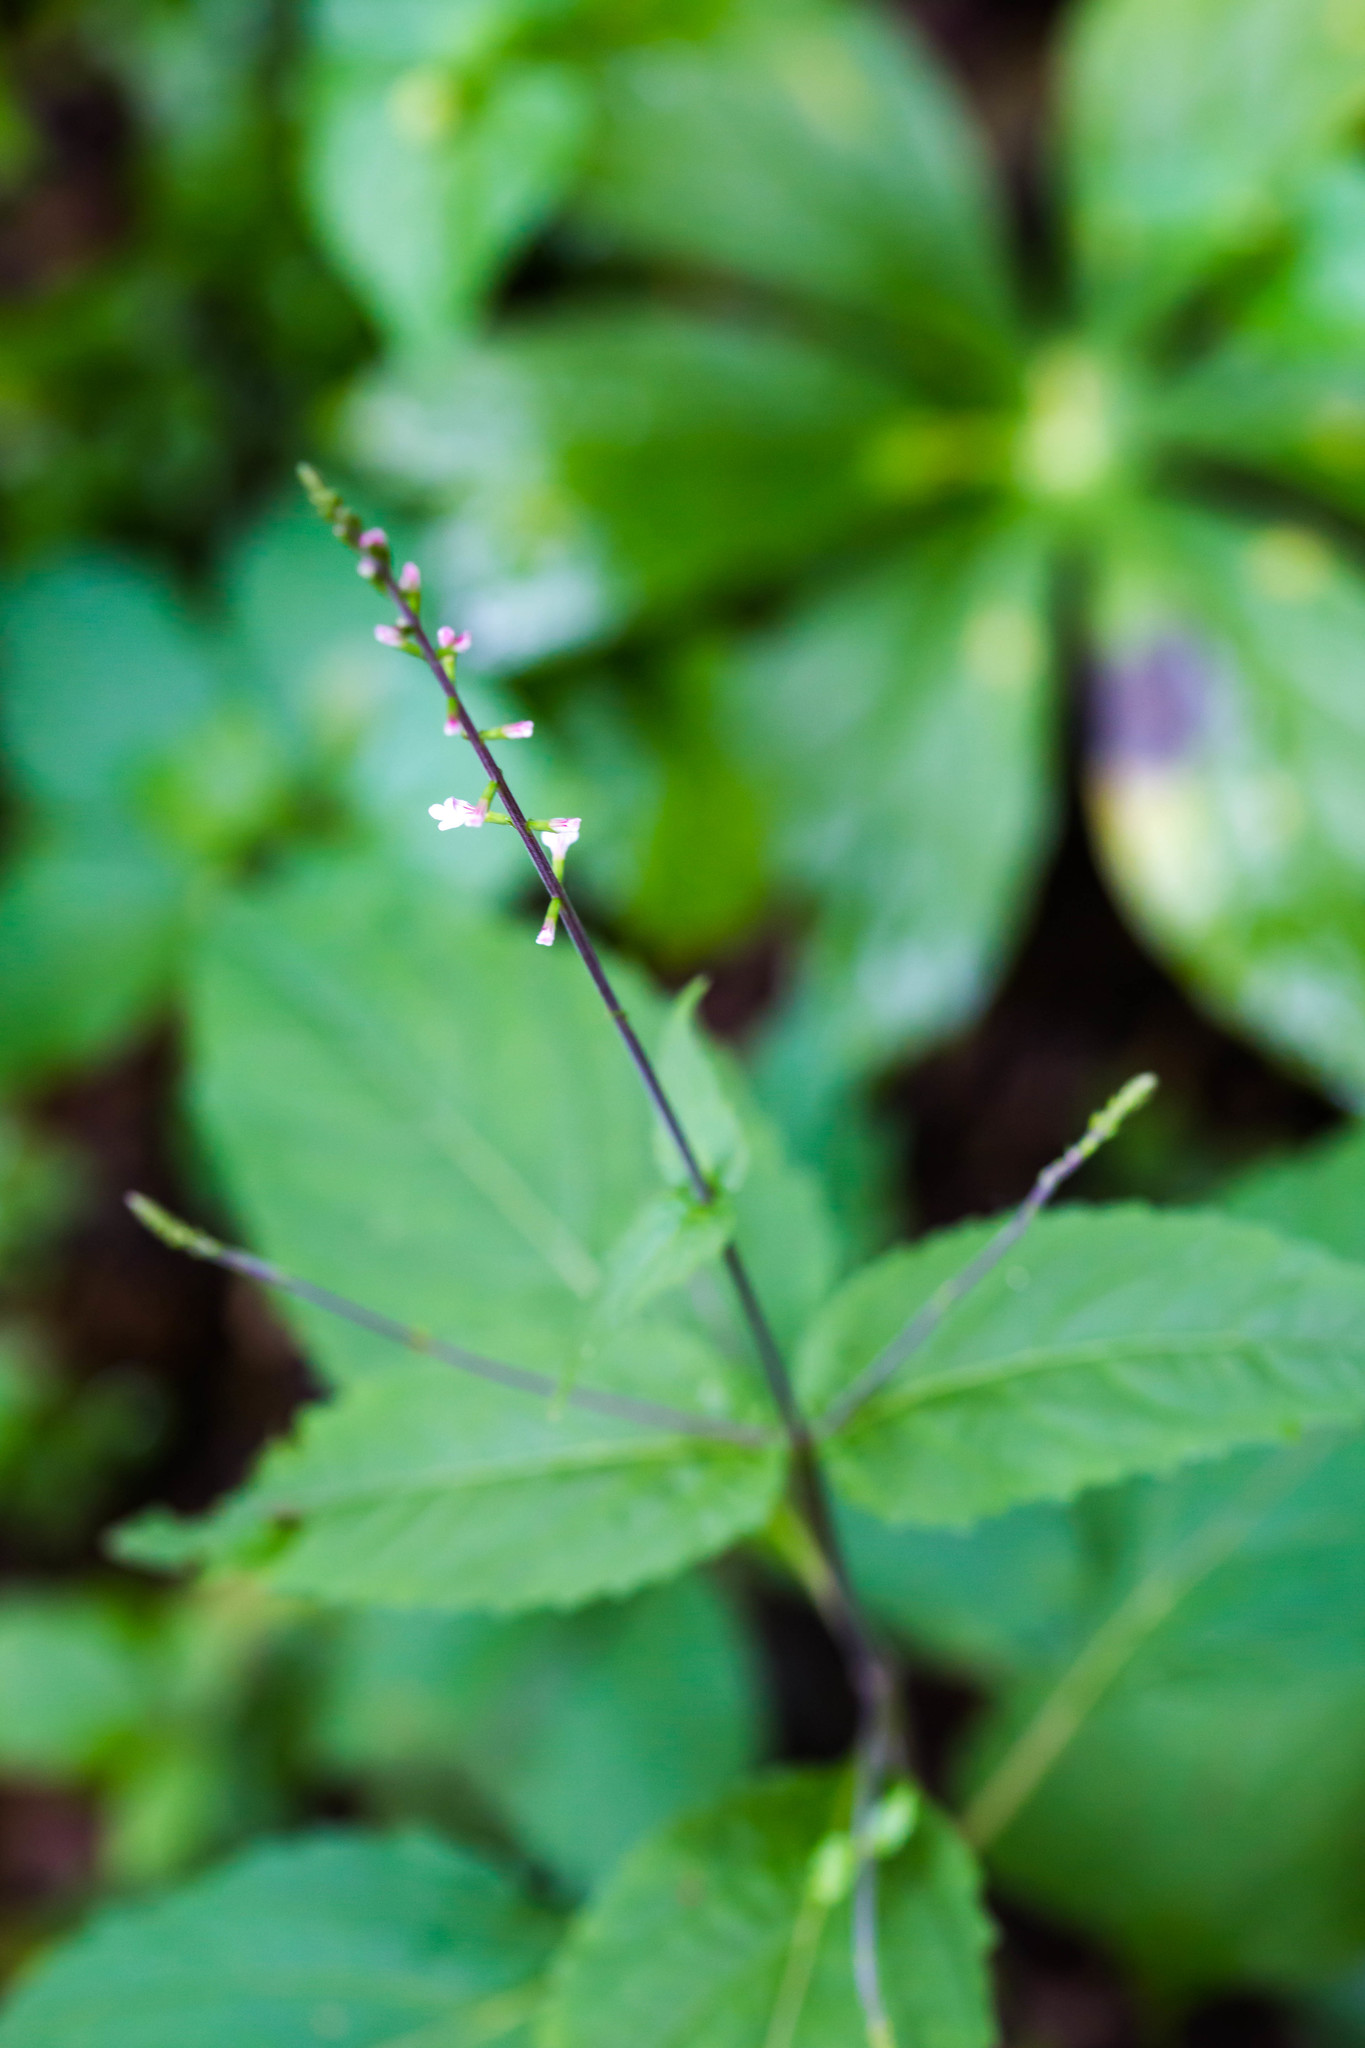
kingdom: Plantae
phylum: Tracheophyta
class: Magnoliopsida
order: Lamiales
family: Phrymaceae
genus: Phryma
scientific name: Phryma leptostachya
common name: American lopseed
